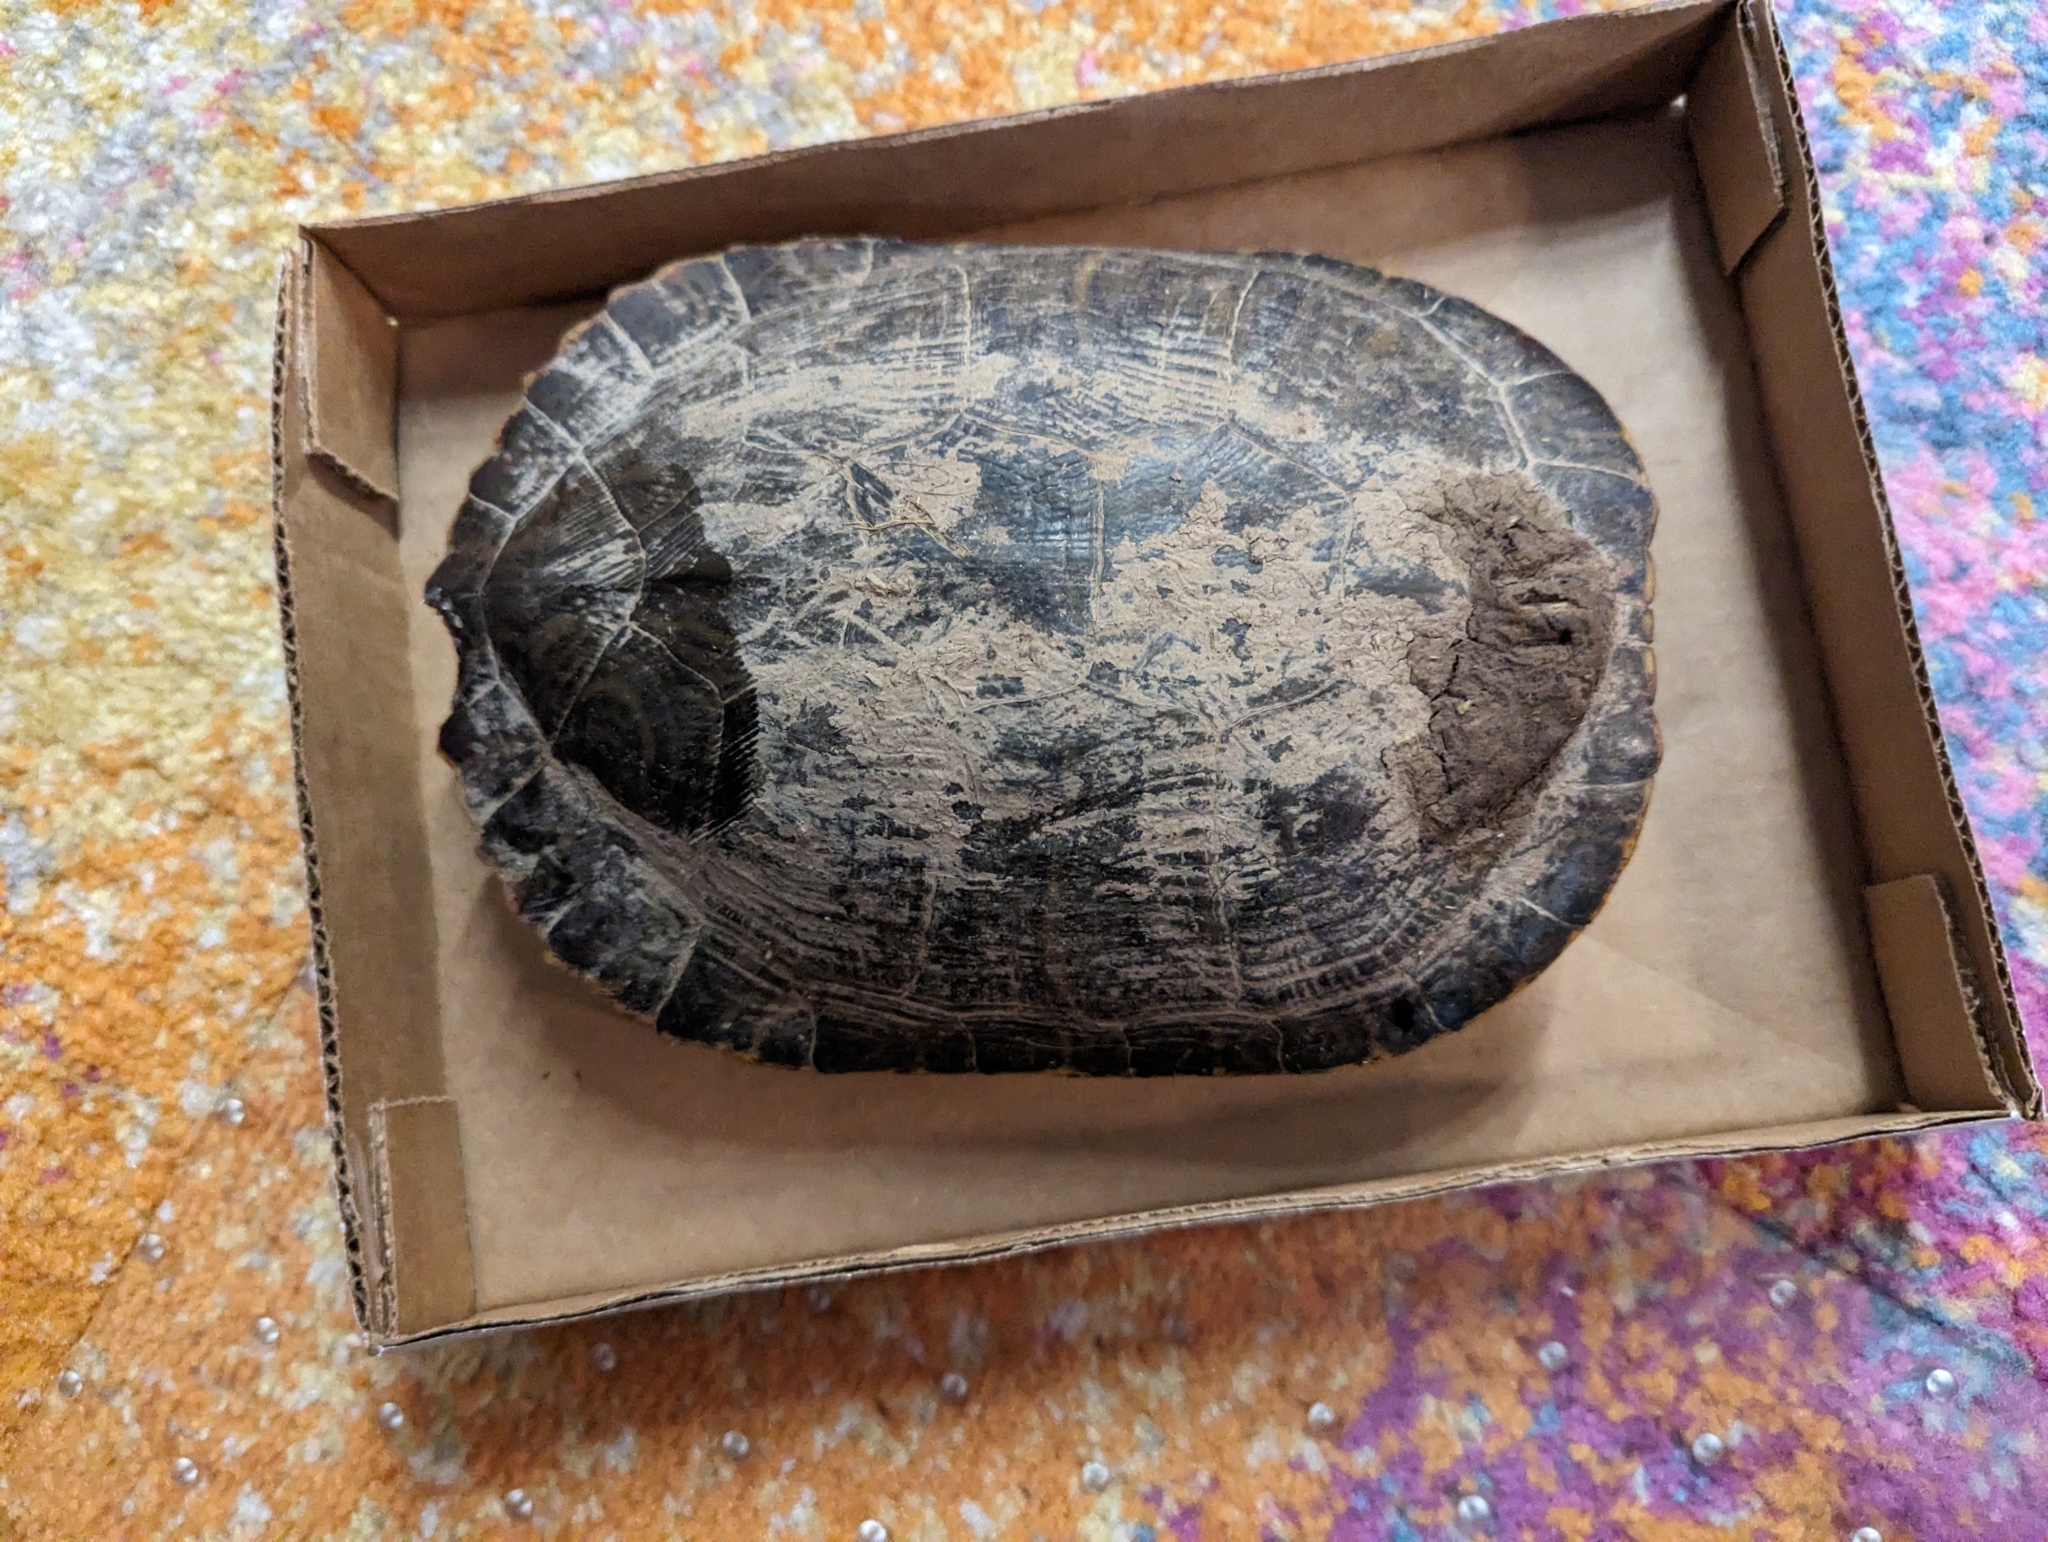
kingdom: Animalia
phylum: Chordata
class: Testudines
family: Emydidae
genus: Trachemys
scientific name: Trachemys scripta
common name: Slider
